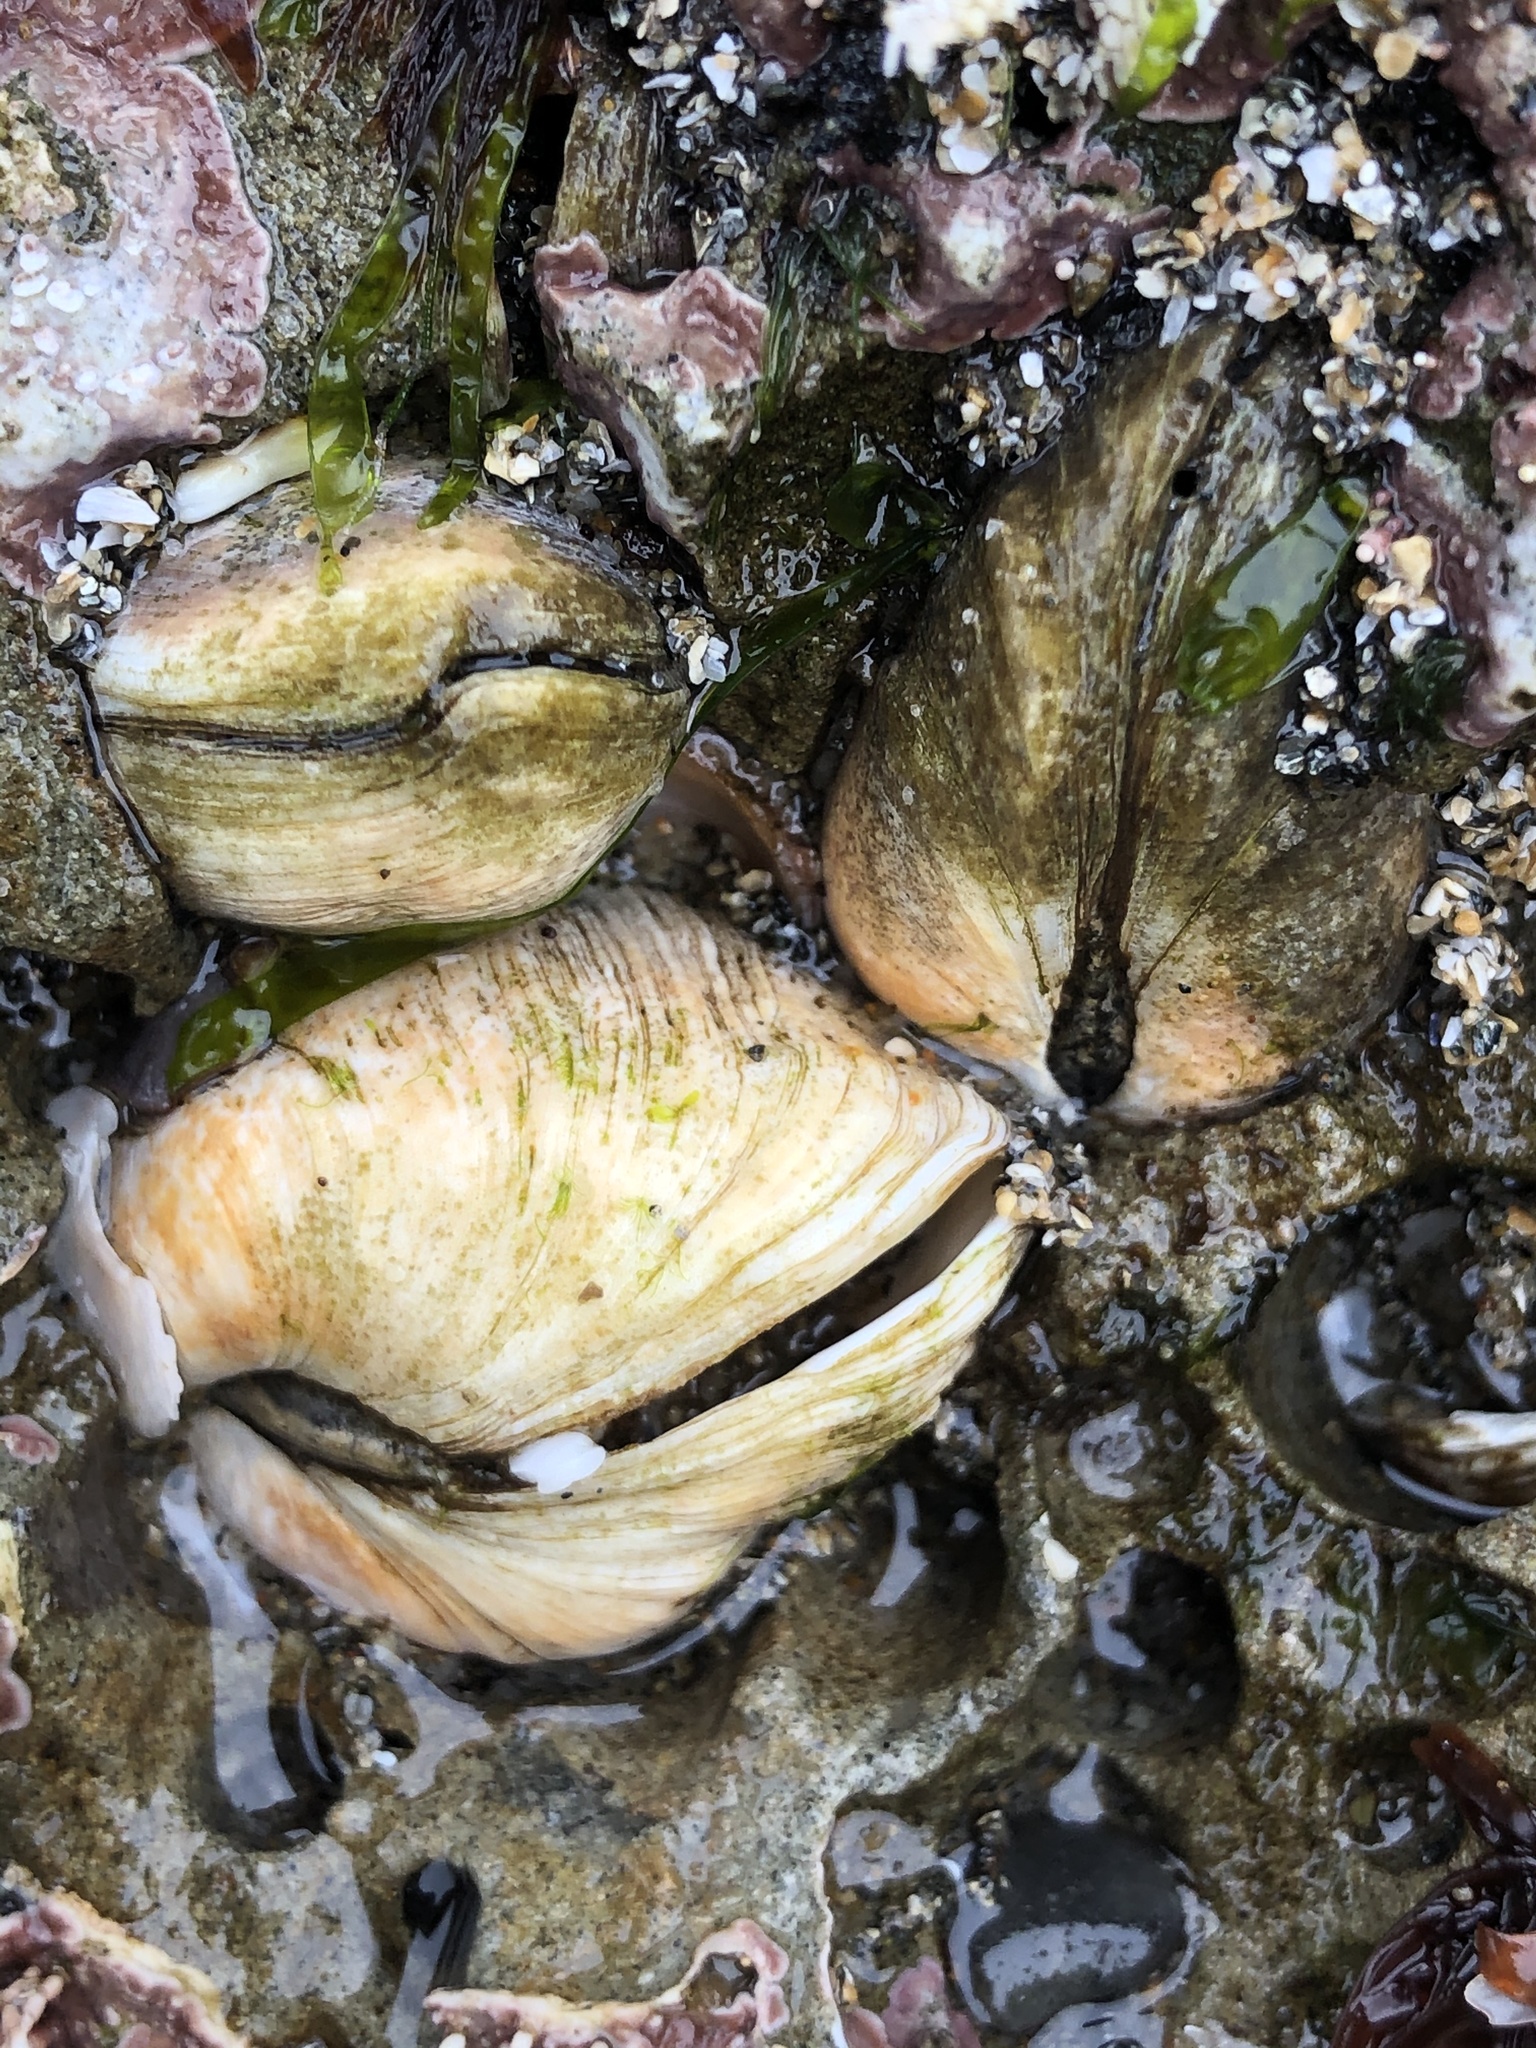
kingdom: Animalia
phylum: Mollusca
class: Bivalvia
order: Venerida
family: Veneridae
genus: Petricola
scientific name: Petricola carditoides
